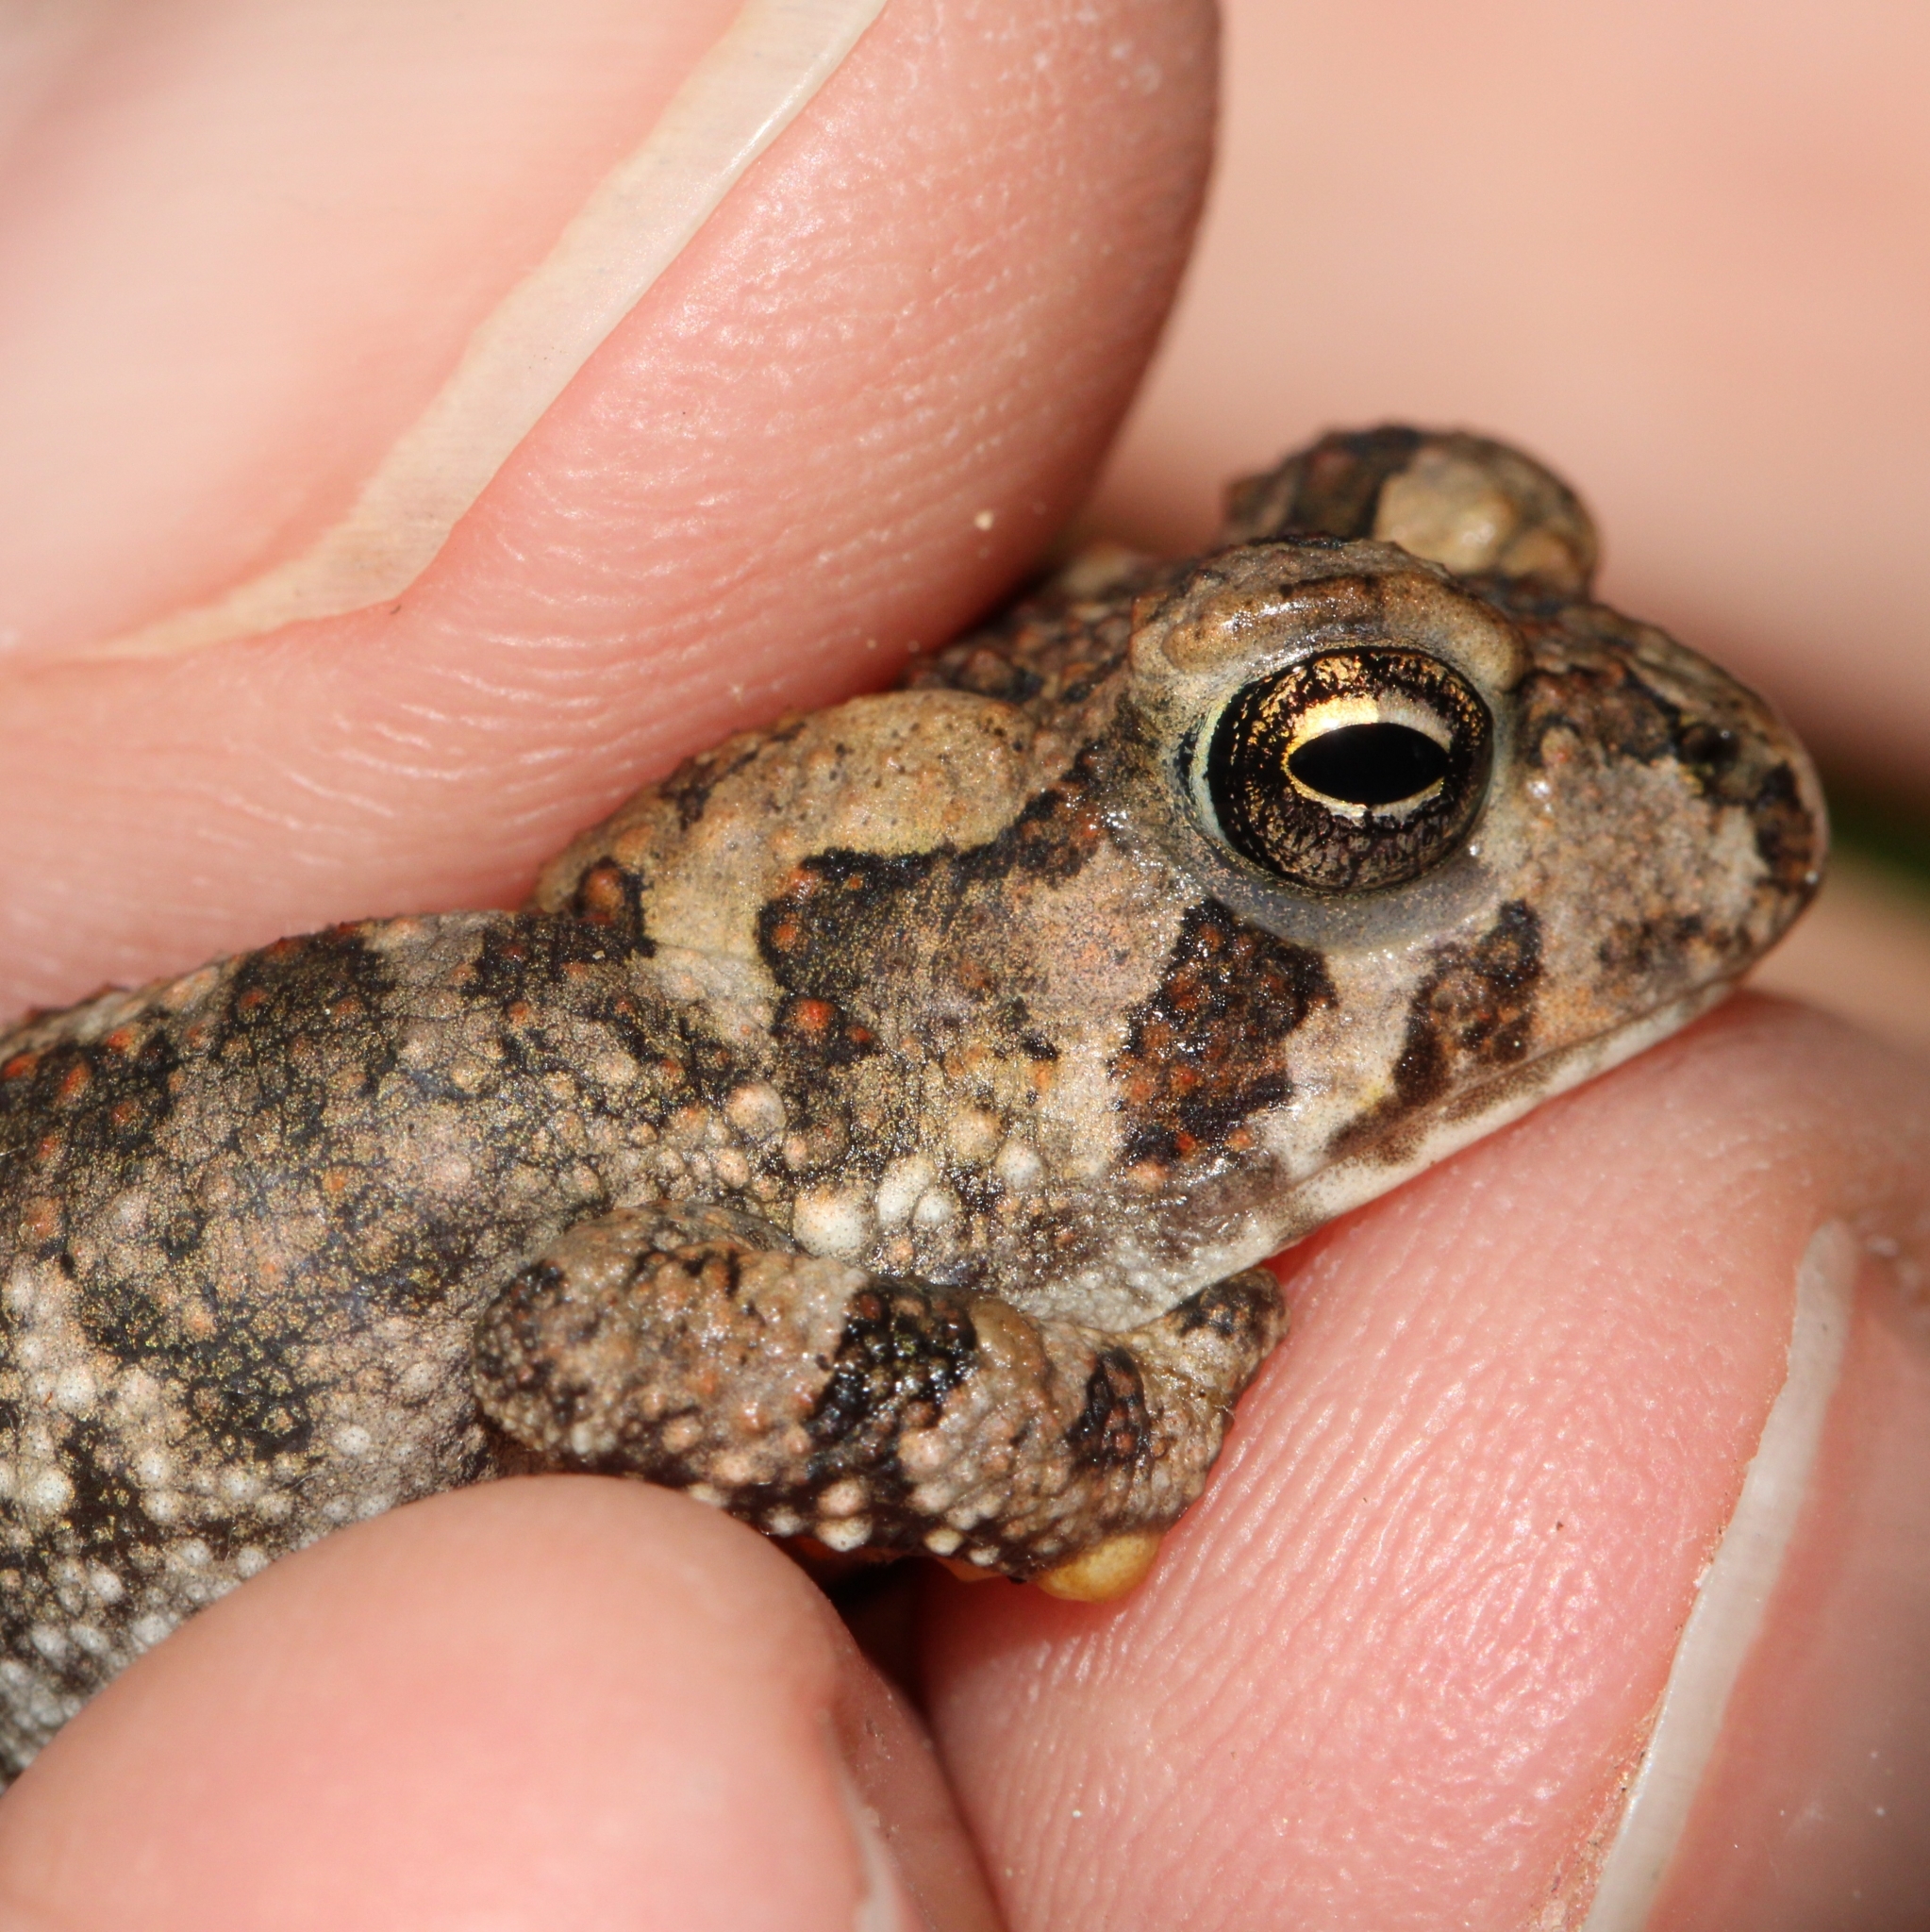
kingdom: Animalia
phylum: Chordata
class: Amphibia
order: Anura
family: Bufonidae
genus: Anaxyrus
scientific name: Anaxyrus fowleri
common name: Fowler's toad
